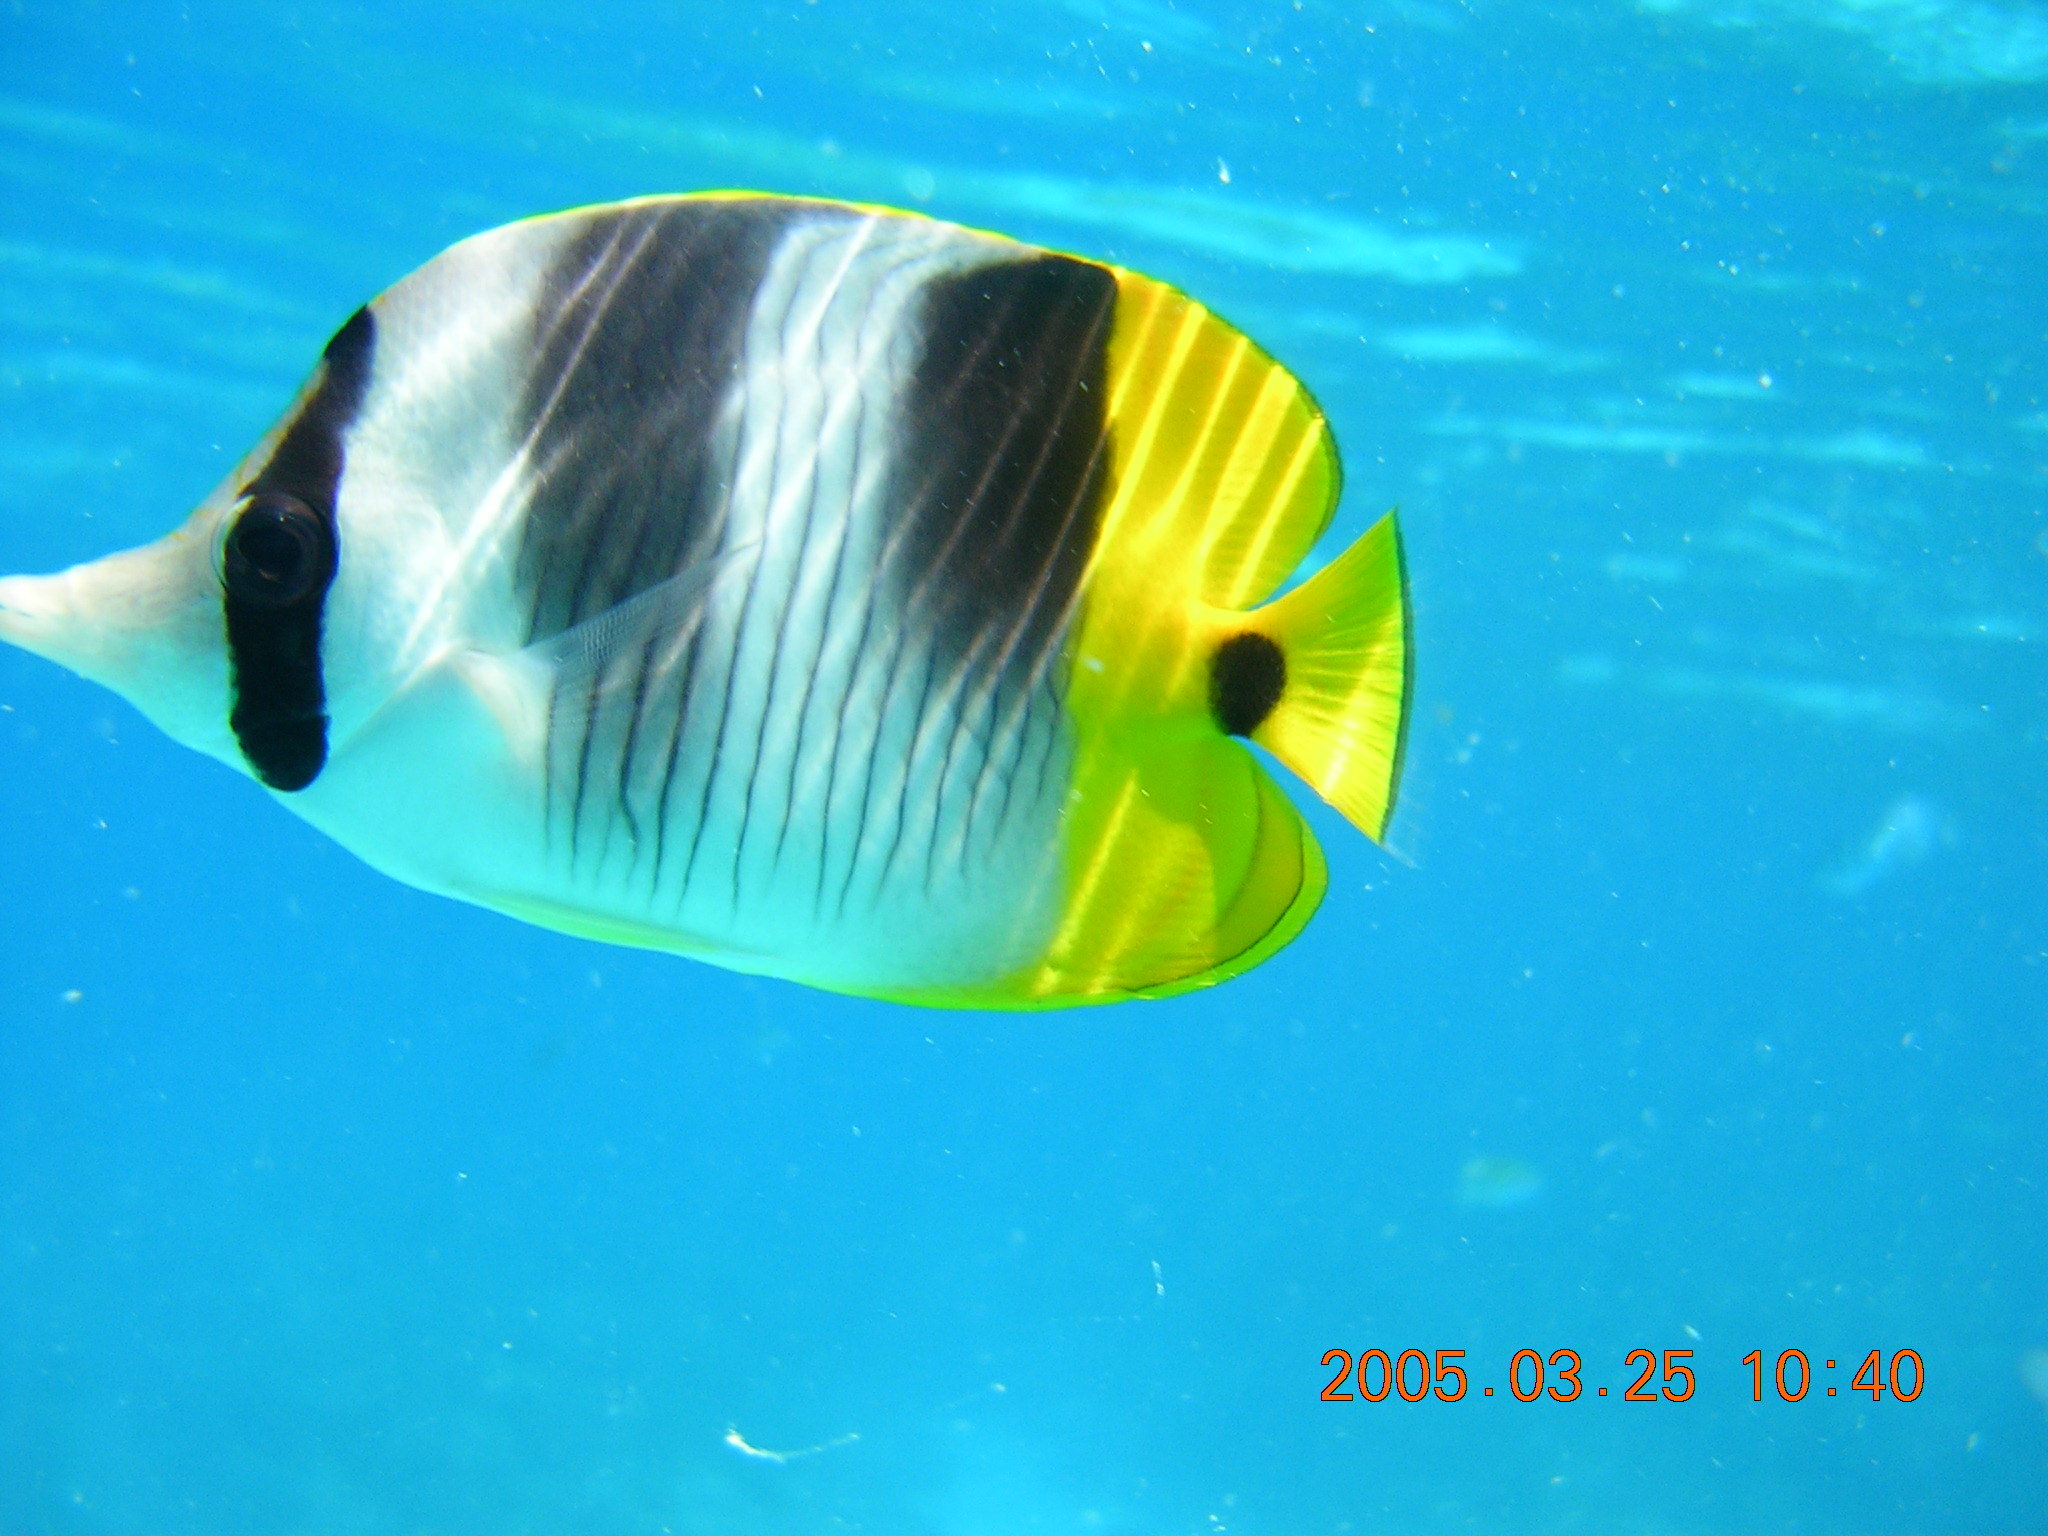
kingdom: Animalia
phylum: Chordata
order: Perciformes
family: Chaetodontidae
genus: Chaetodon
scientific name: Chaetodon ulietensis
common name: Pacific double-saddle butterflyfish
